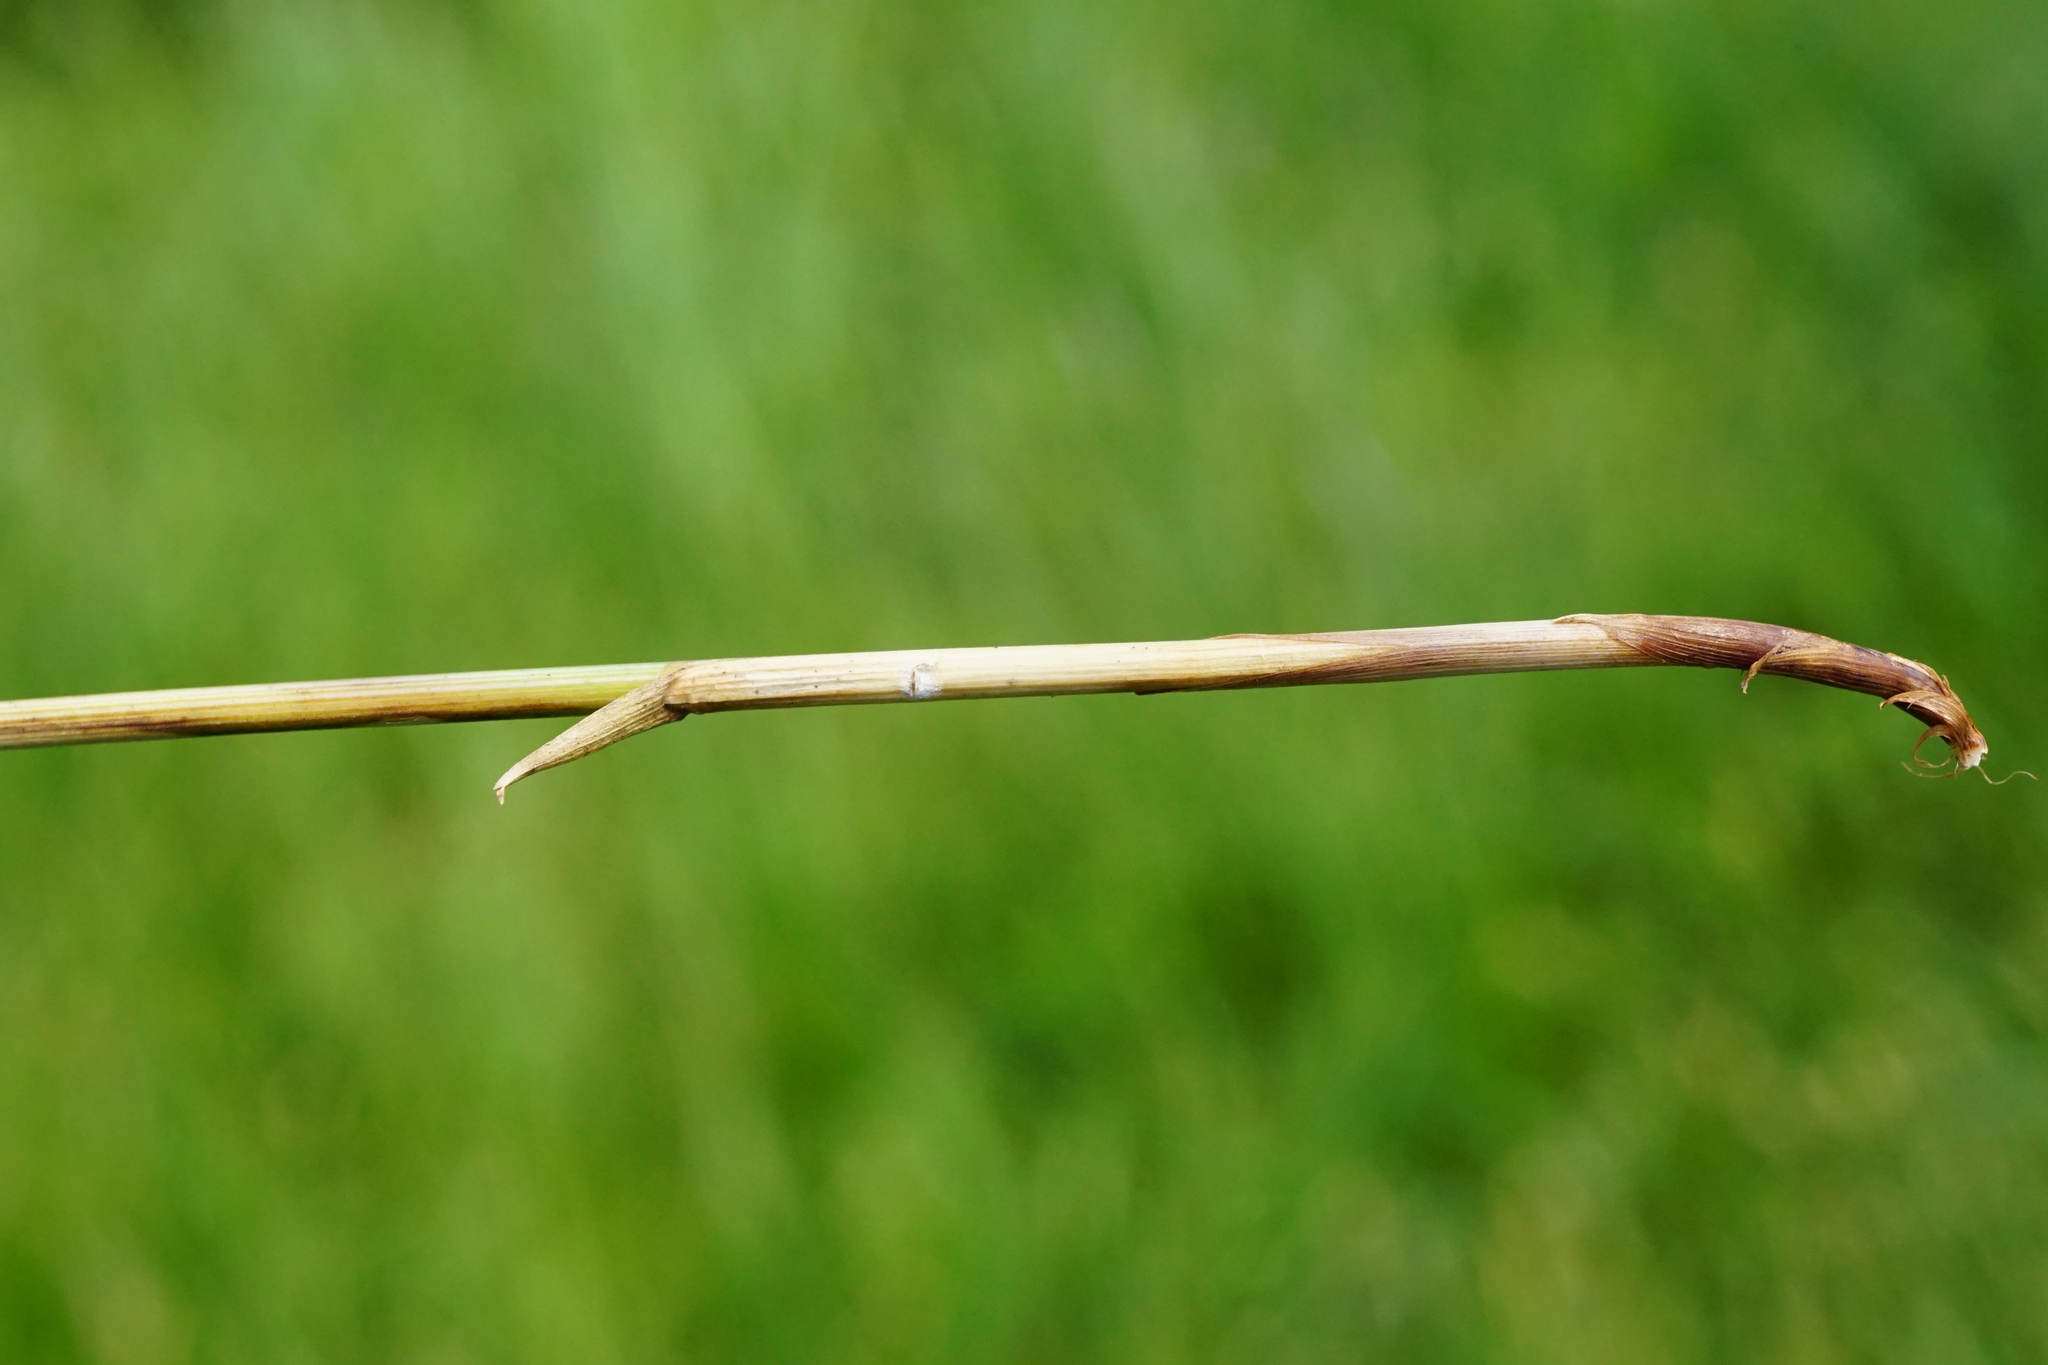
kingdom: Plantae
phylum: Tracheophyta
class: Liliopsida
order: Poales
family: Cyperaceae
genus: Carex
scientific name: Carex brizoides
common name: Quaking-grass sedge
